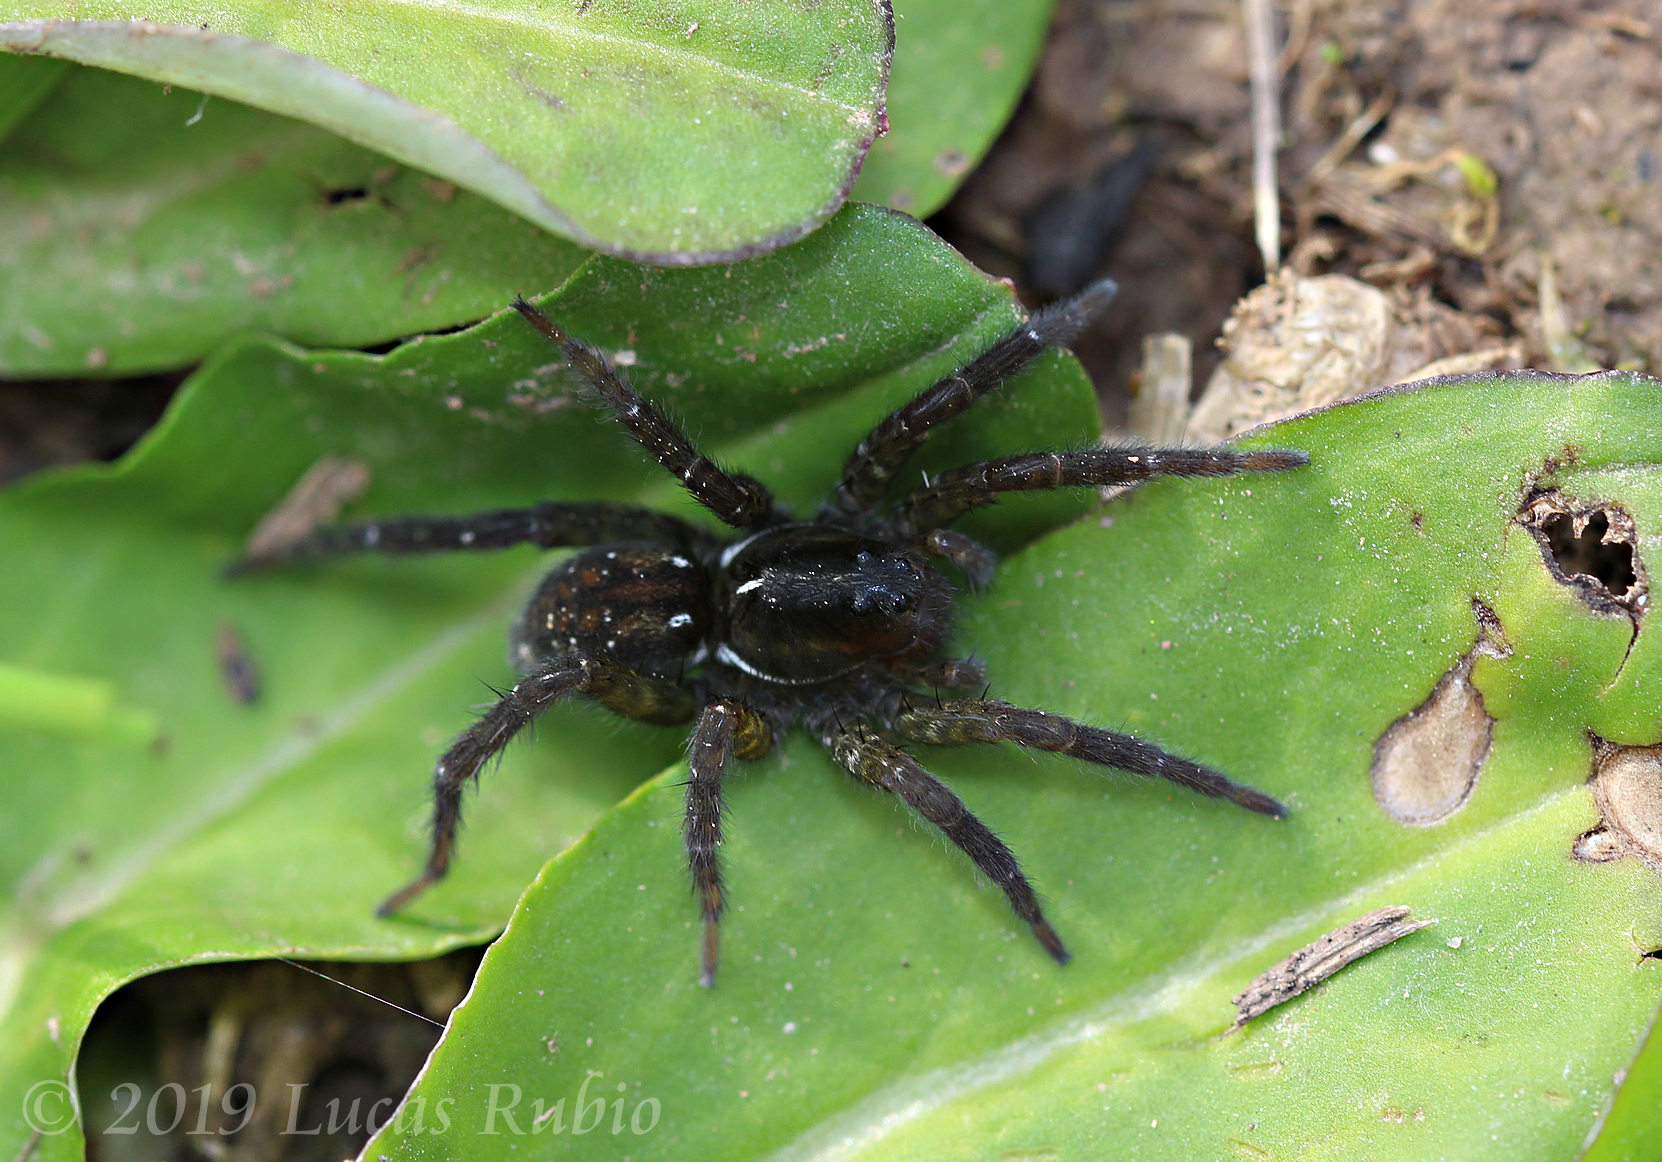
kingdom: Animalia
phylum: Arthropoda
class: Arachnida
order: Araneae
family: Lycosidae
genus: Allocosa
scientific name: Allocosa paraguayensis
